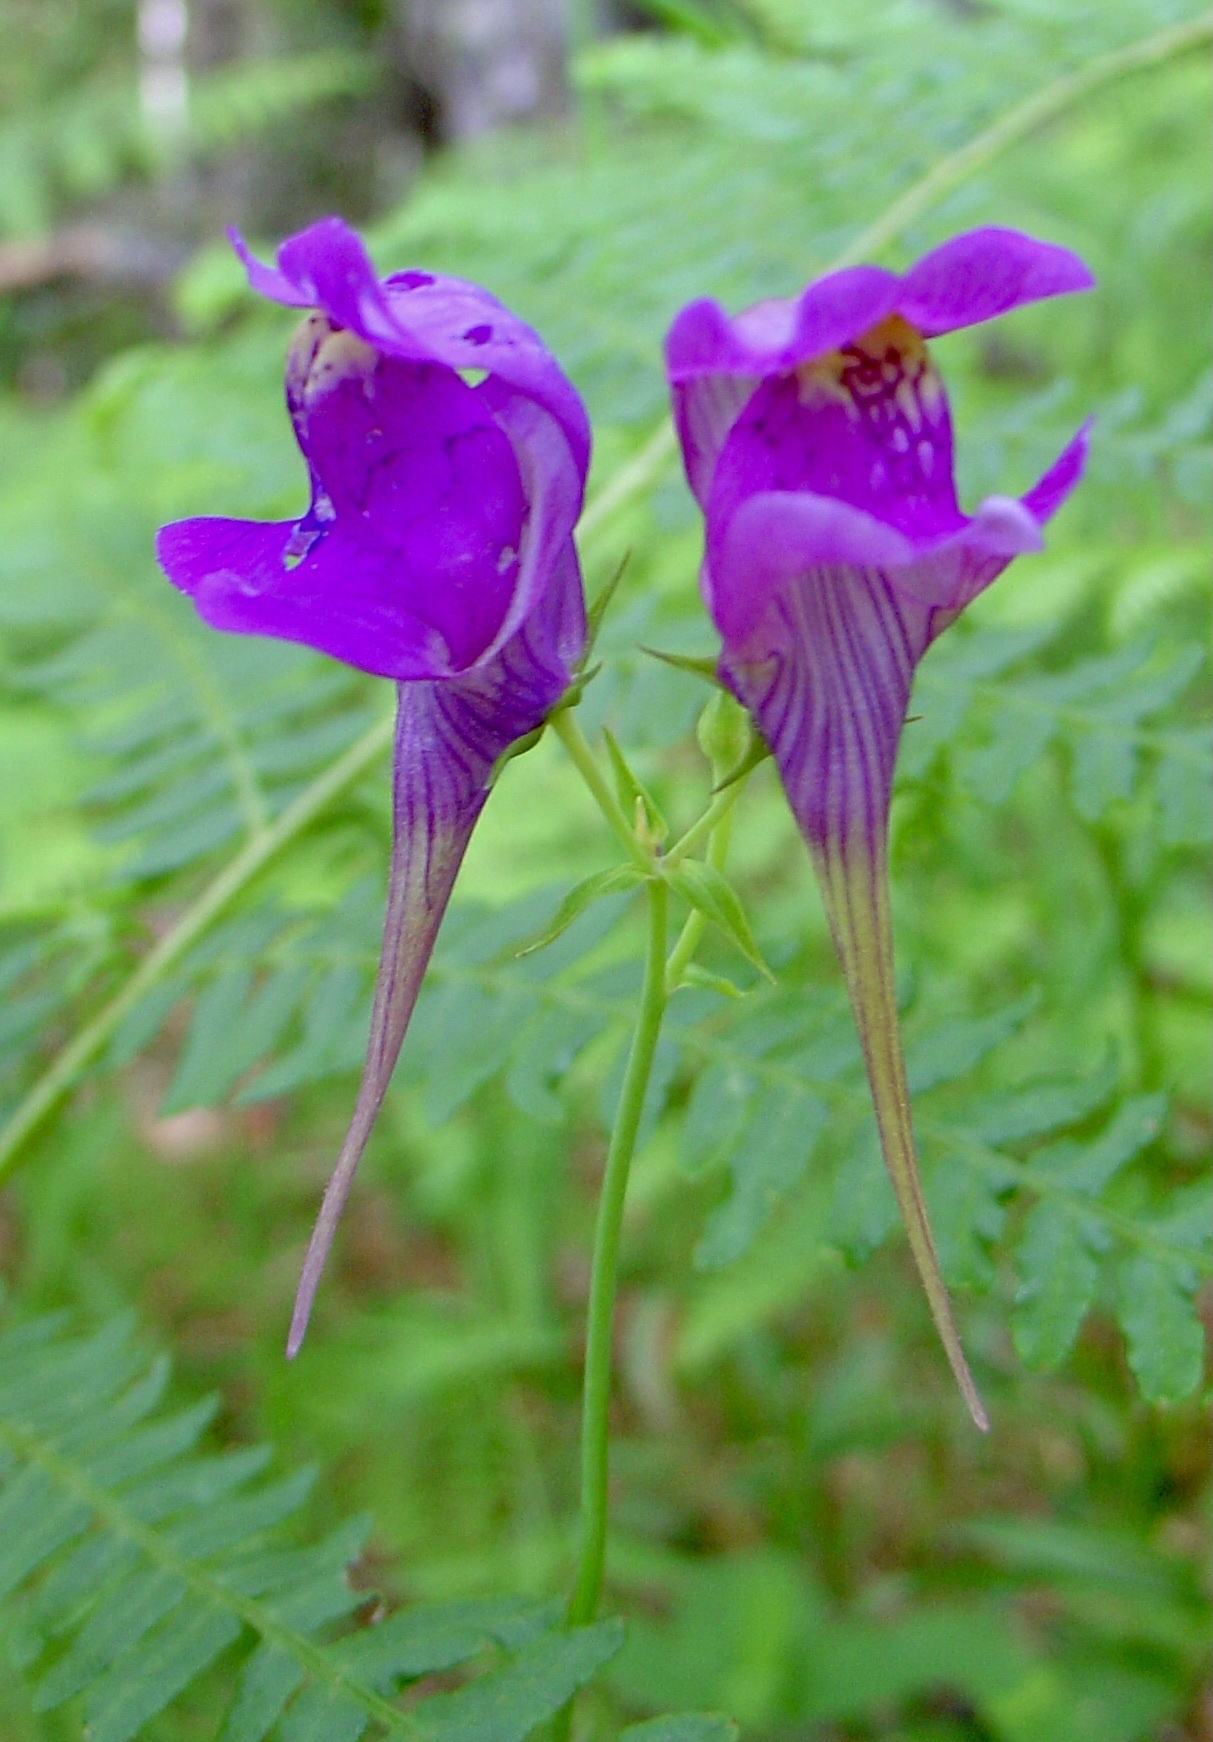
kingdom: Plantae
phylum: Tracheophyta
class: Magnoliopsida
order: Lamiales
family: Plantaginaceae
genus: Linaria
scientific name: Linaria triornithophora
